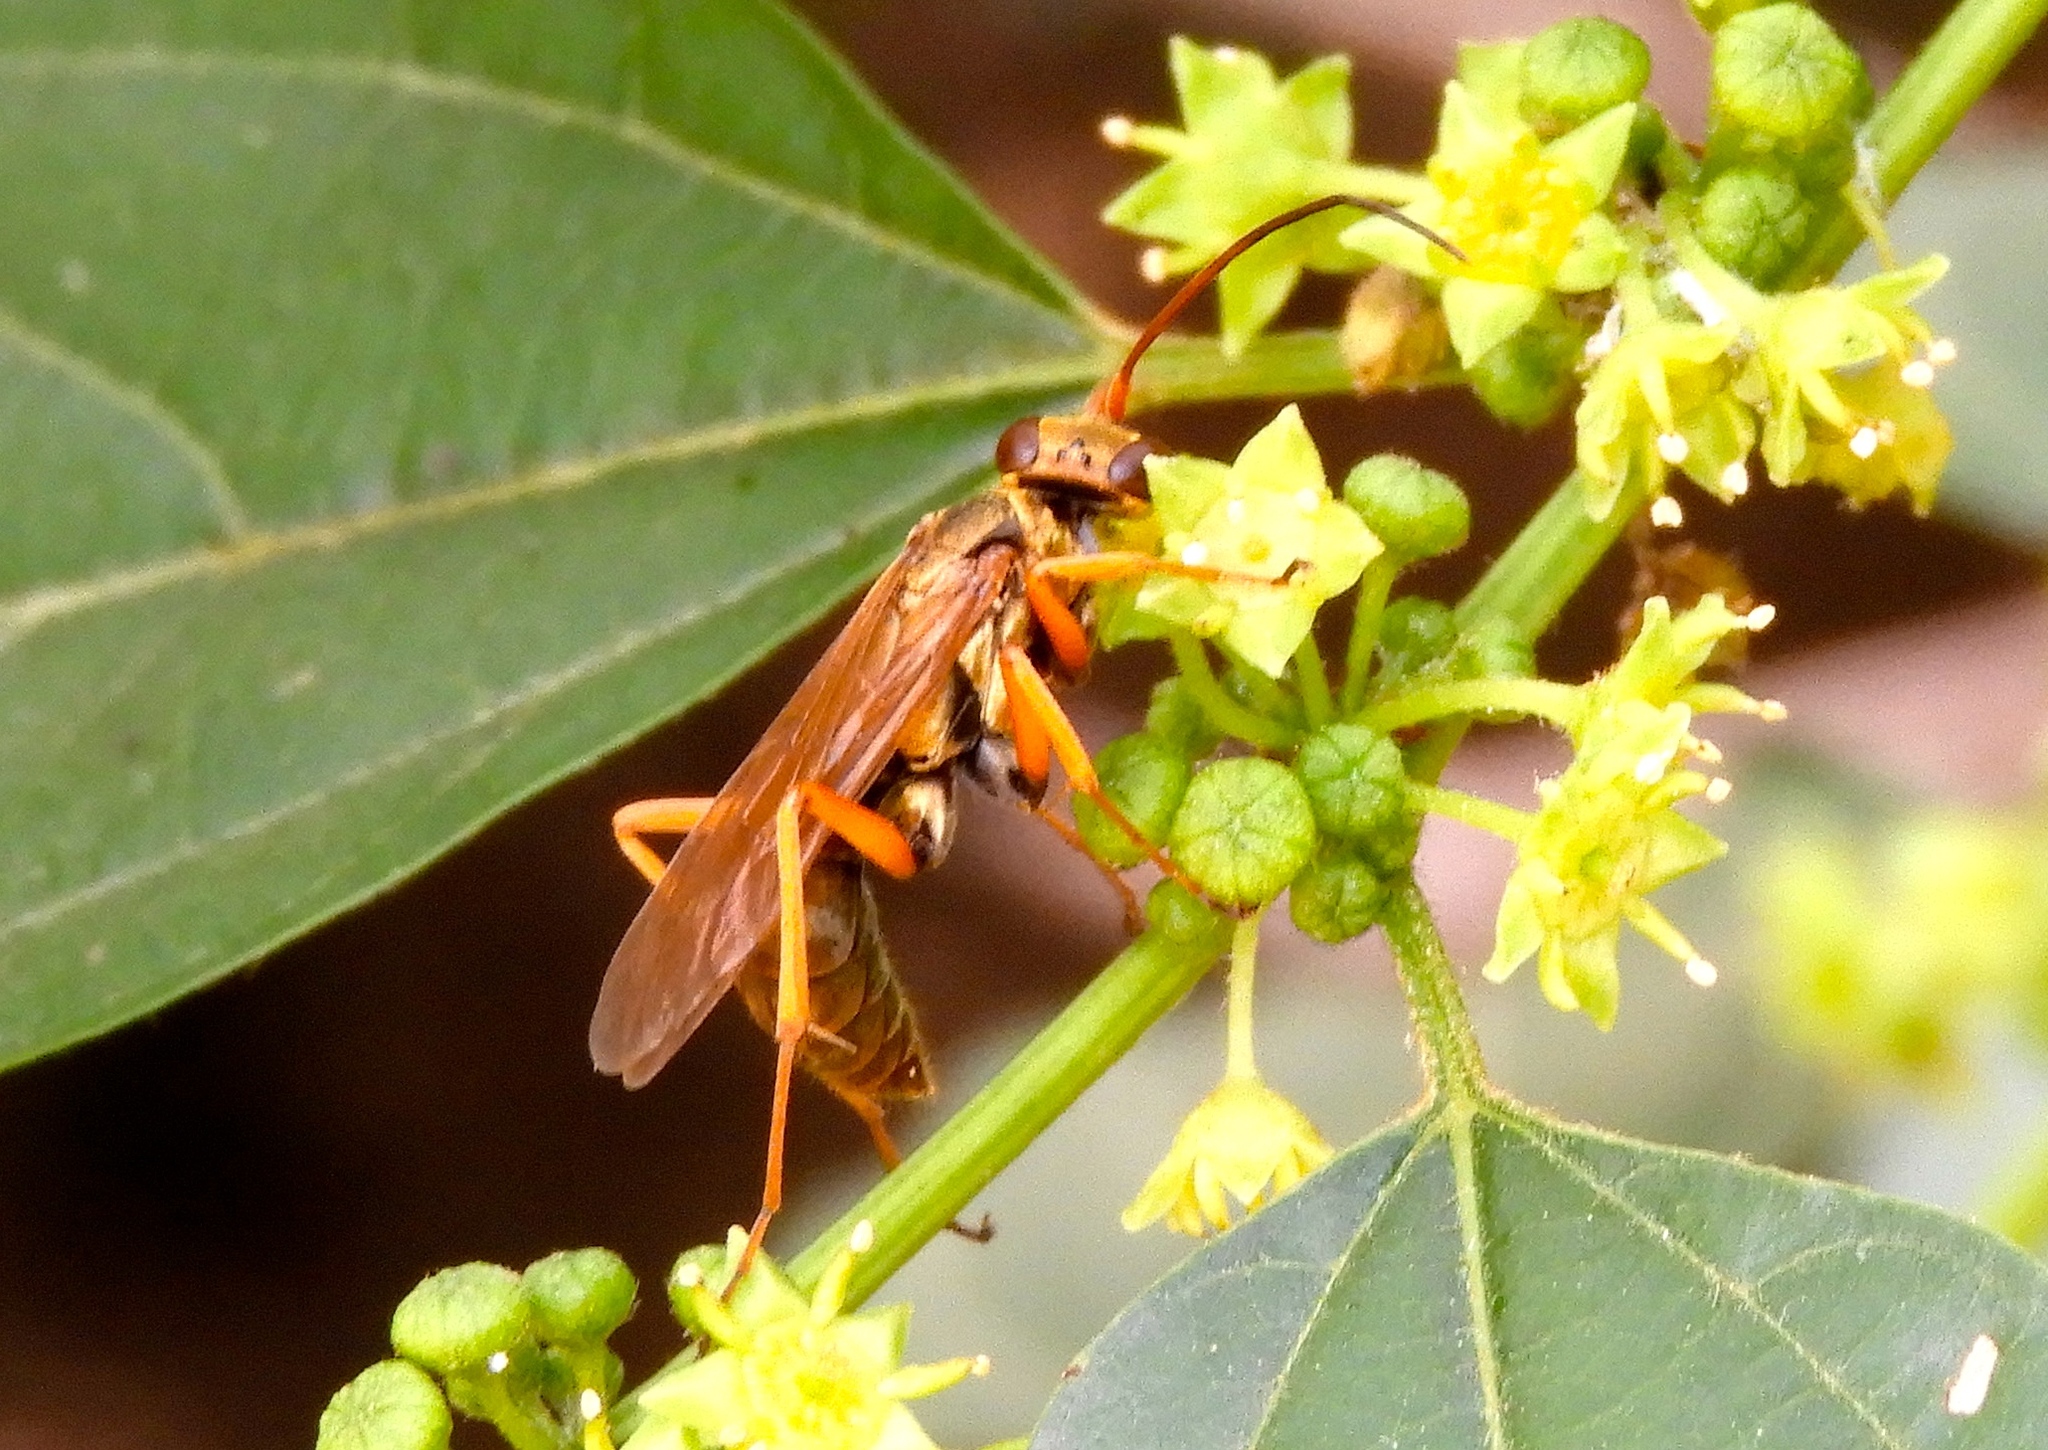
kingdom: Animalia
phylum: Arthropoda
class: Insecta
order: Hymenoptera
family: Pompilidae
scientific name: Pompilidae
